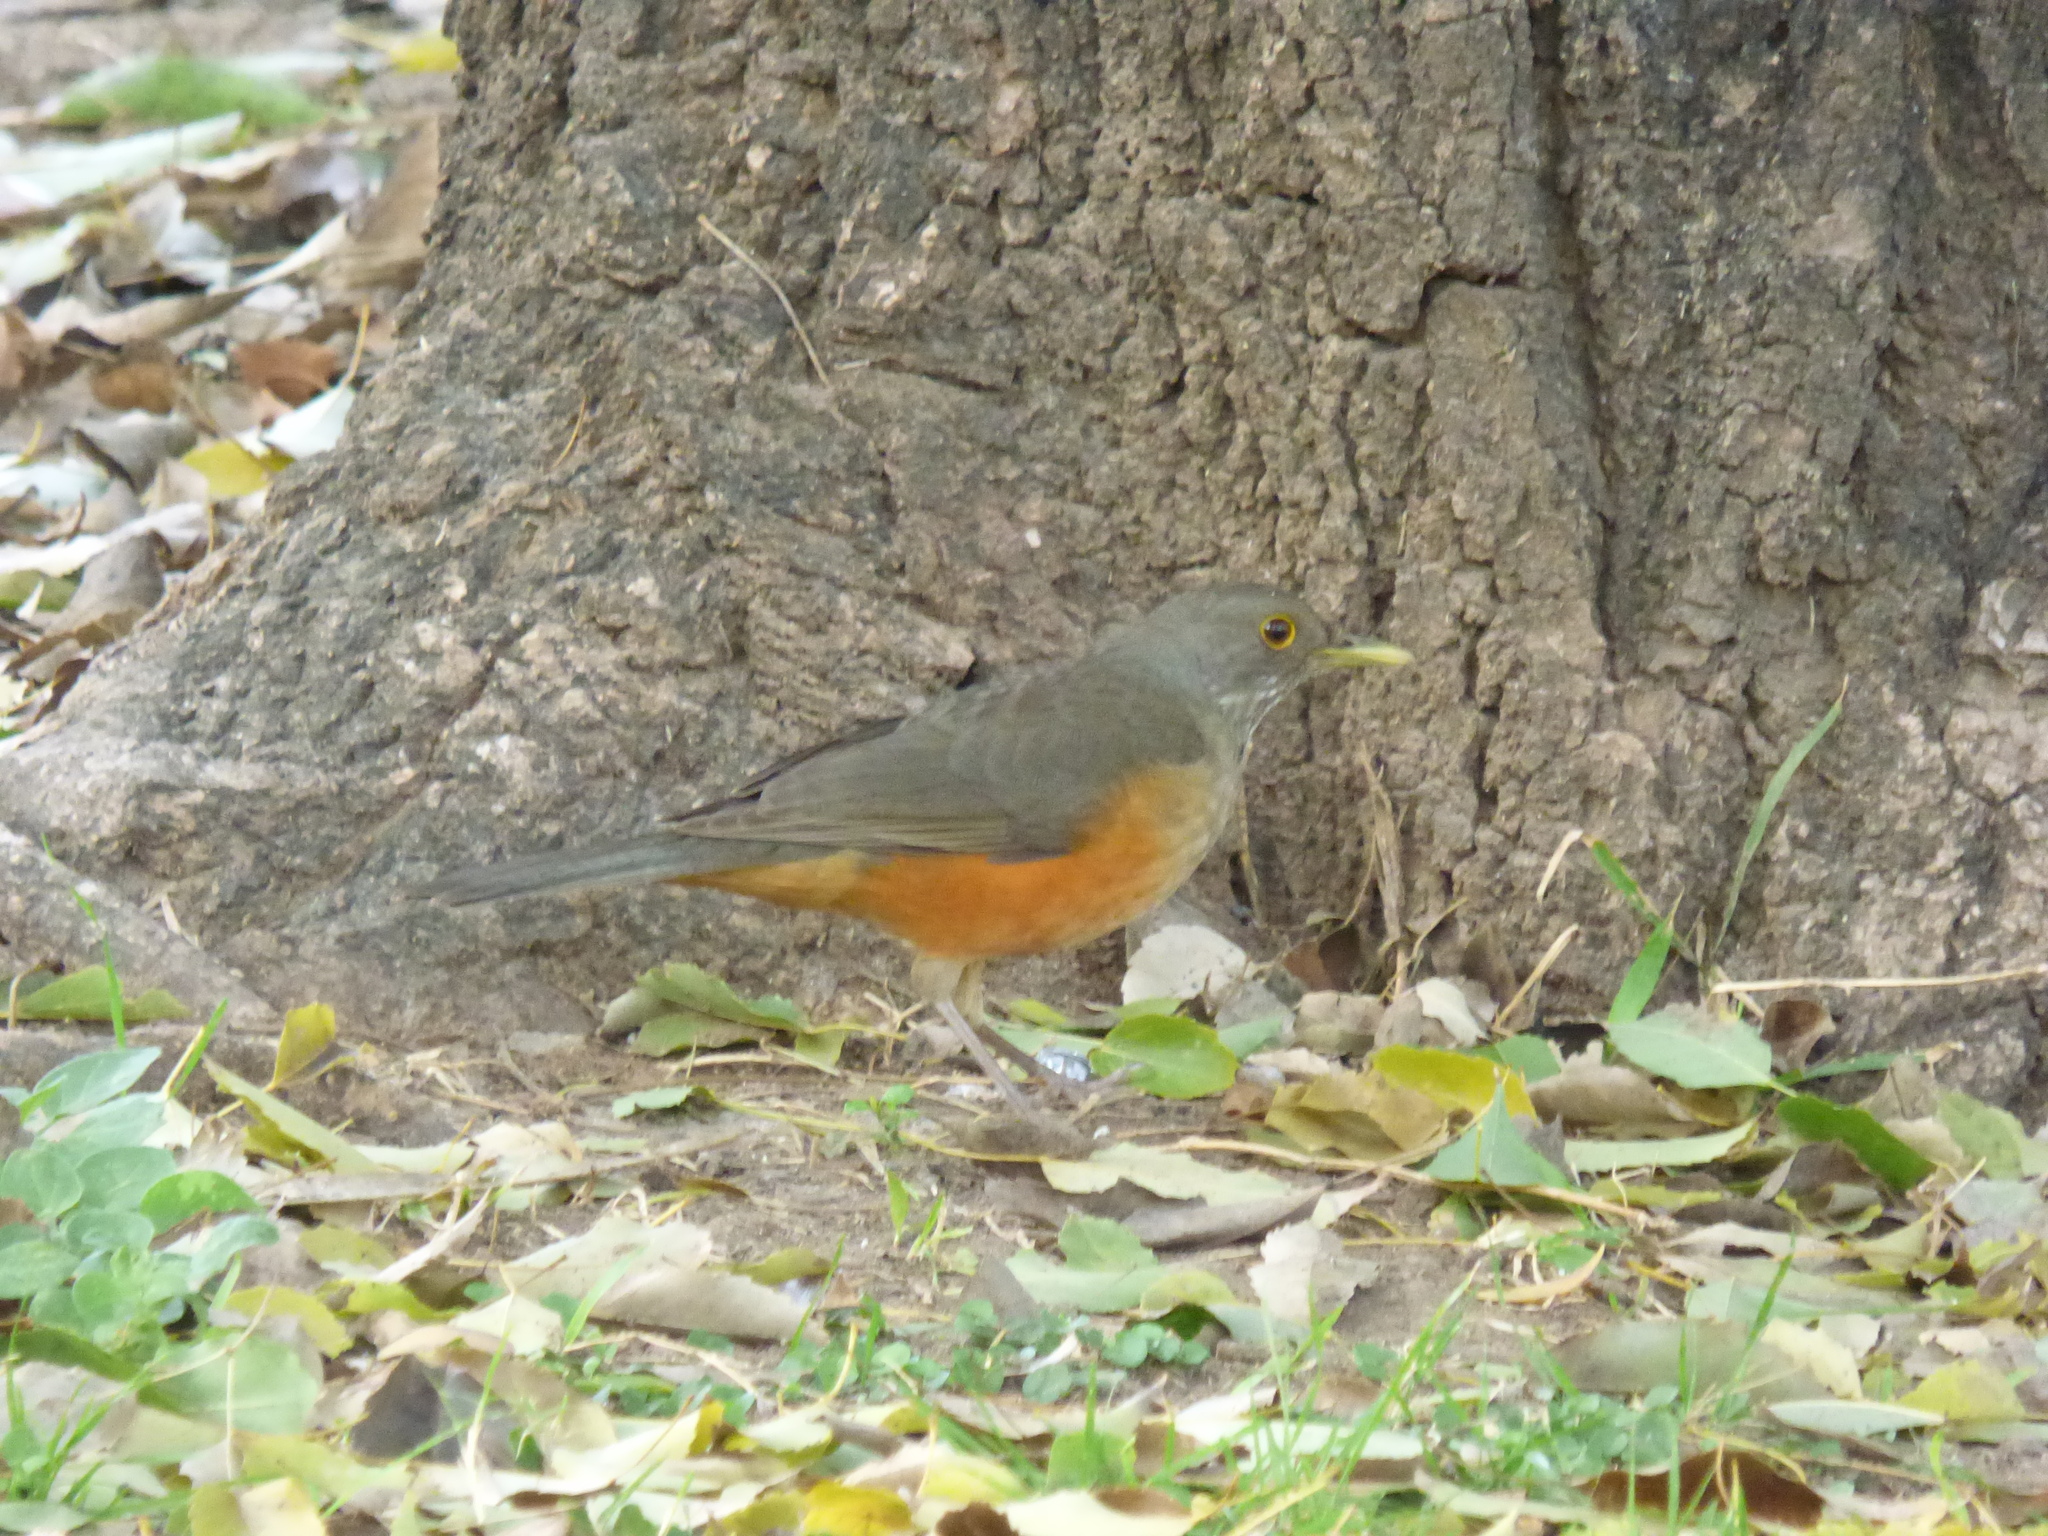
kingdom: Animalia
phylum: Chordata
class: Aves
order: Passeriformes
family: Turdidae
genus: Turdus
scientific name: Turdus rufiventris
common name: Rufous-bellied thrush
